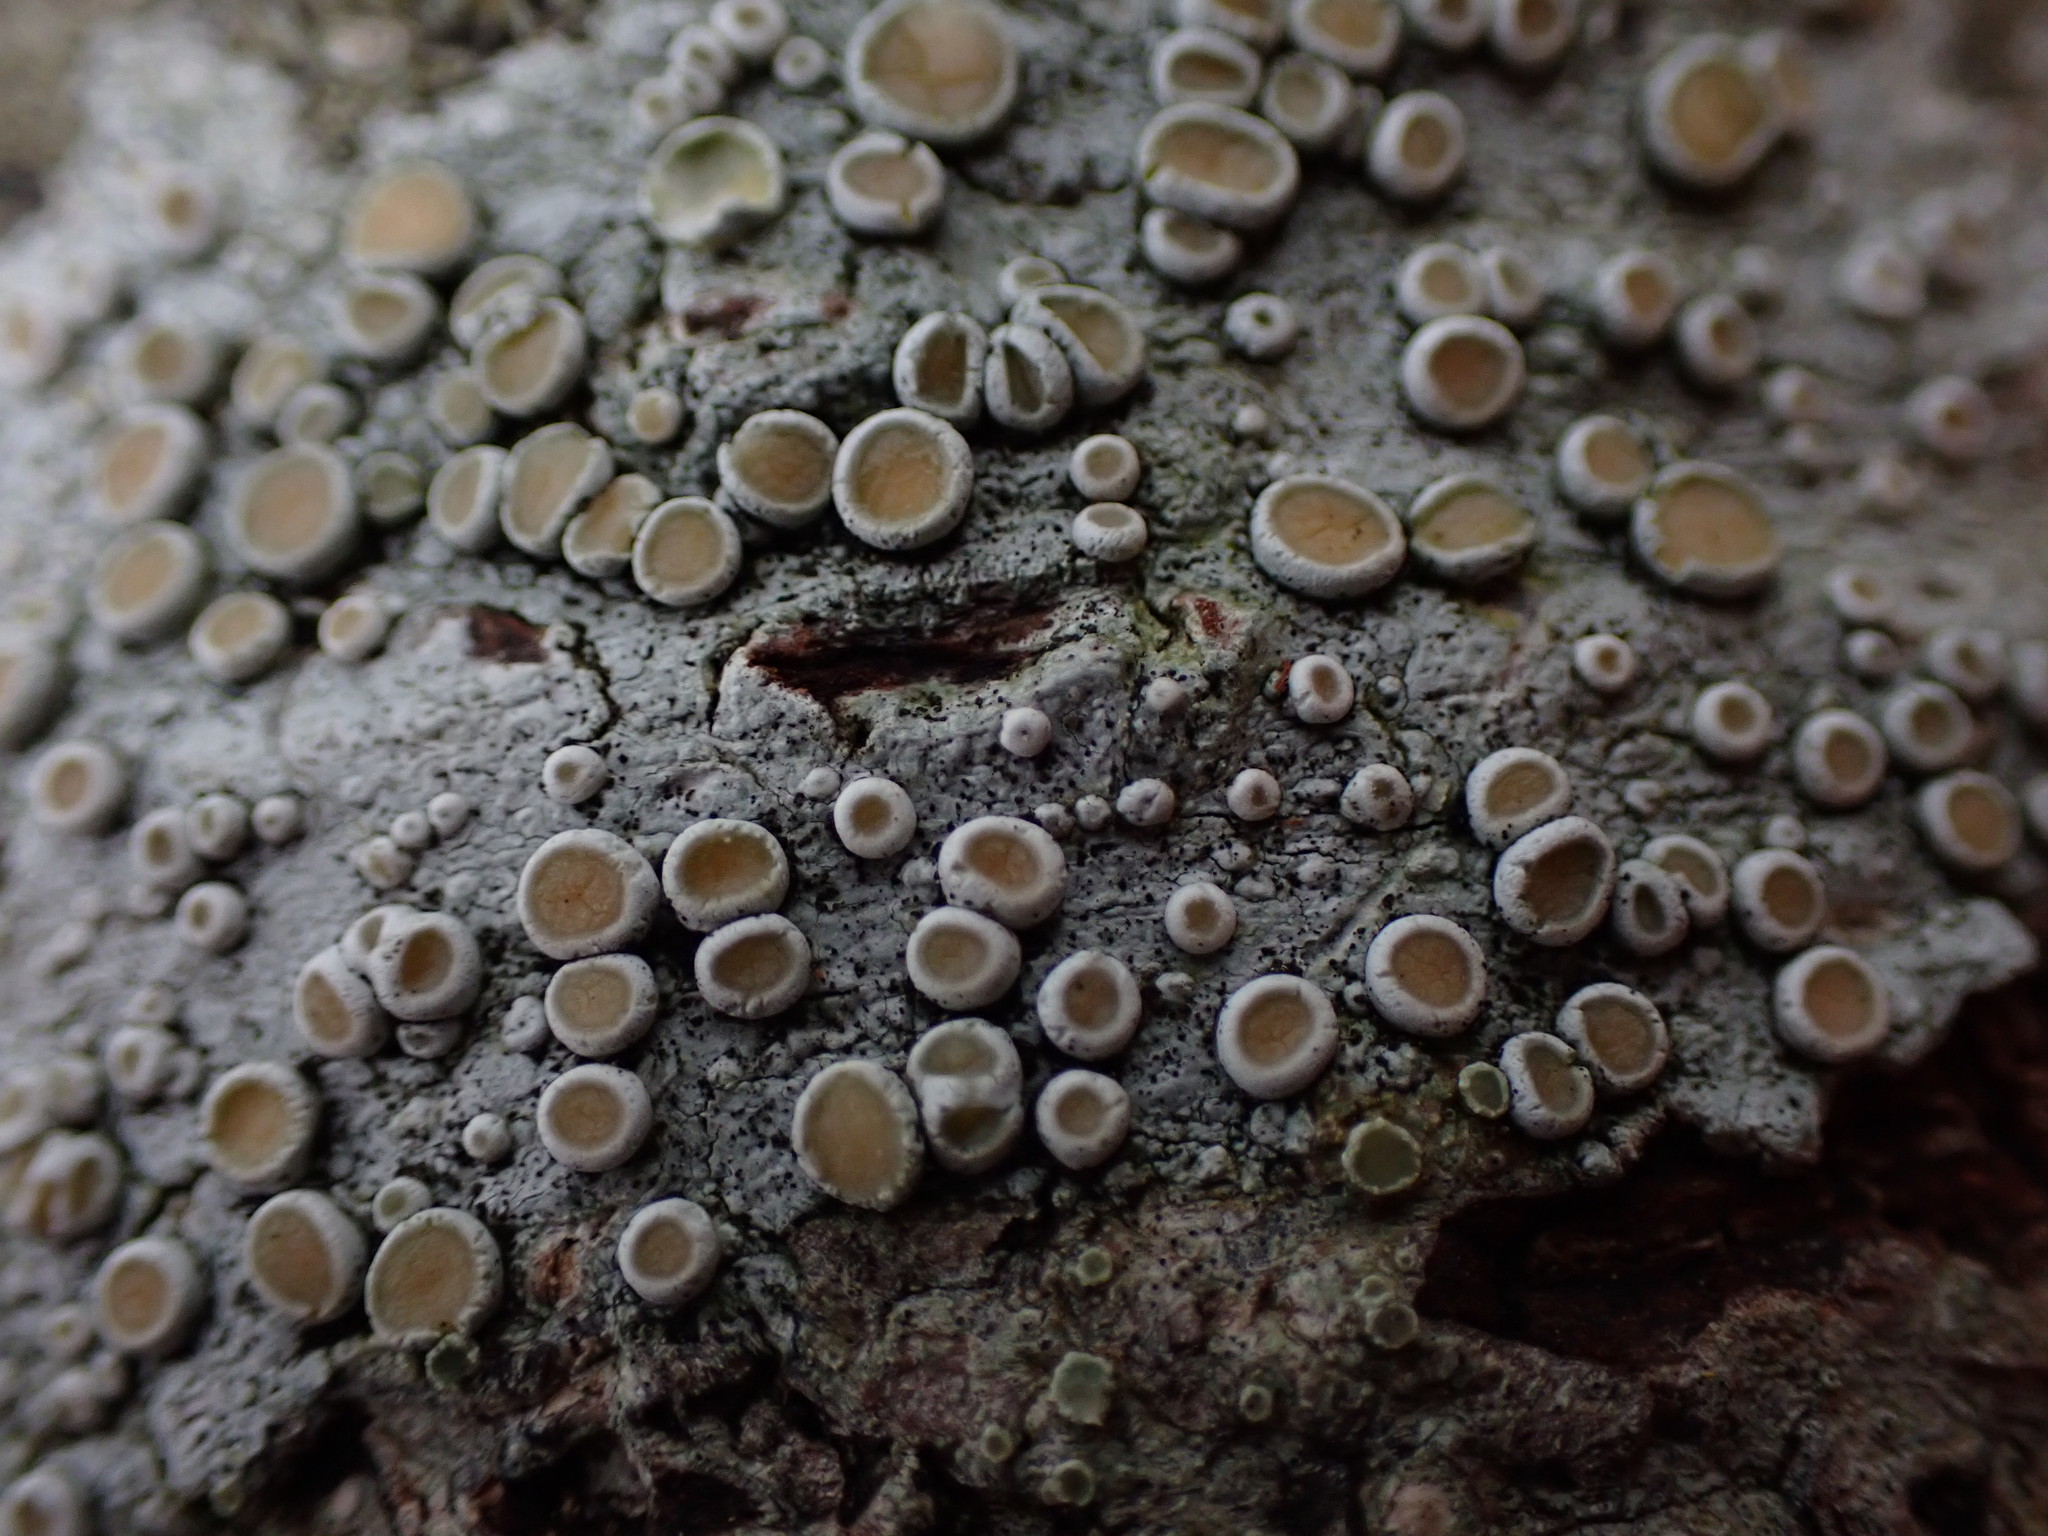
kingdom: Fungi
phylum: Ascomycota
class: Lecanoromycetes
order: Pertusariales
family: Ochrolechiaceae
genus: Ochrolechia
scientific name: Ochrolechia laevigata
